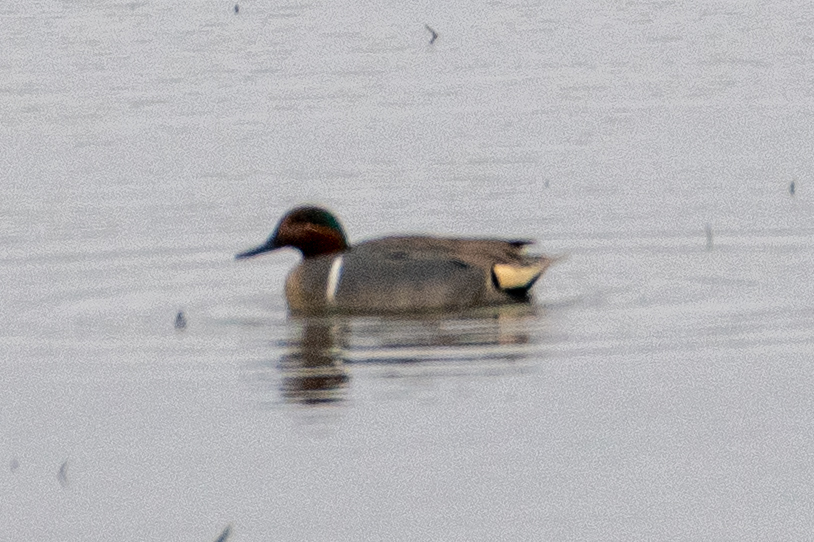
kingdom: Animalia
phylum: Chordata
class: Aves
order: Anseriformes
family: Anatidae
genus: Anas
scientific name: Anas crecca
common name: Eurasian teal
